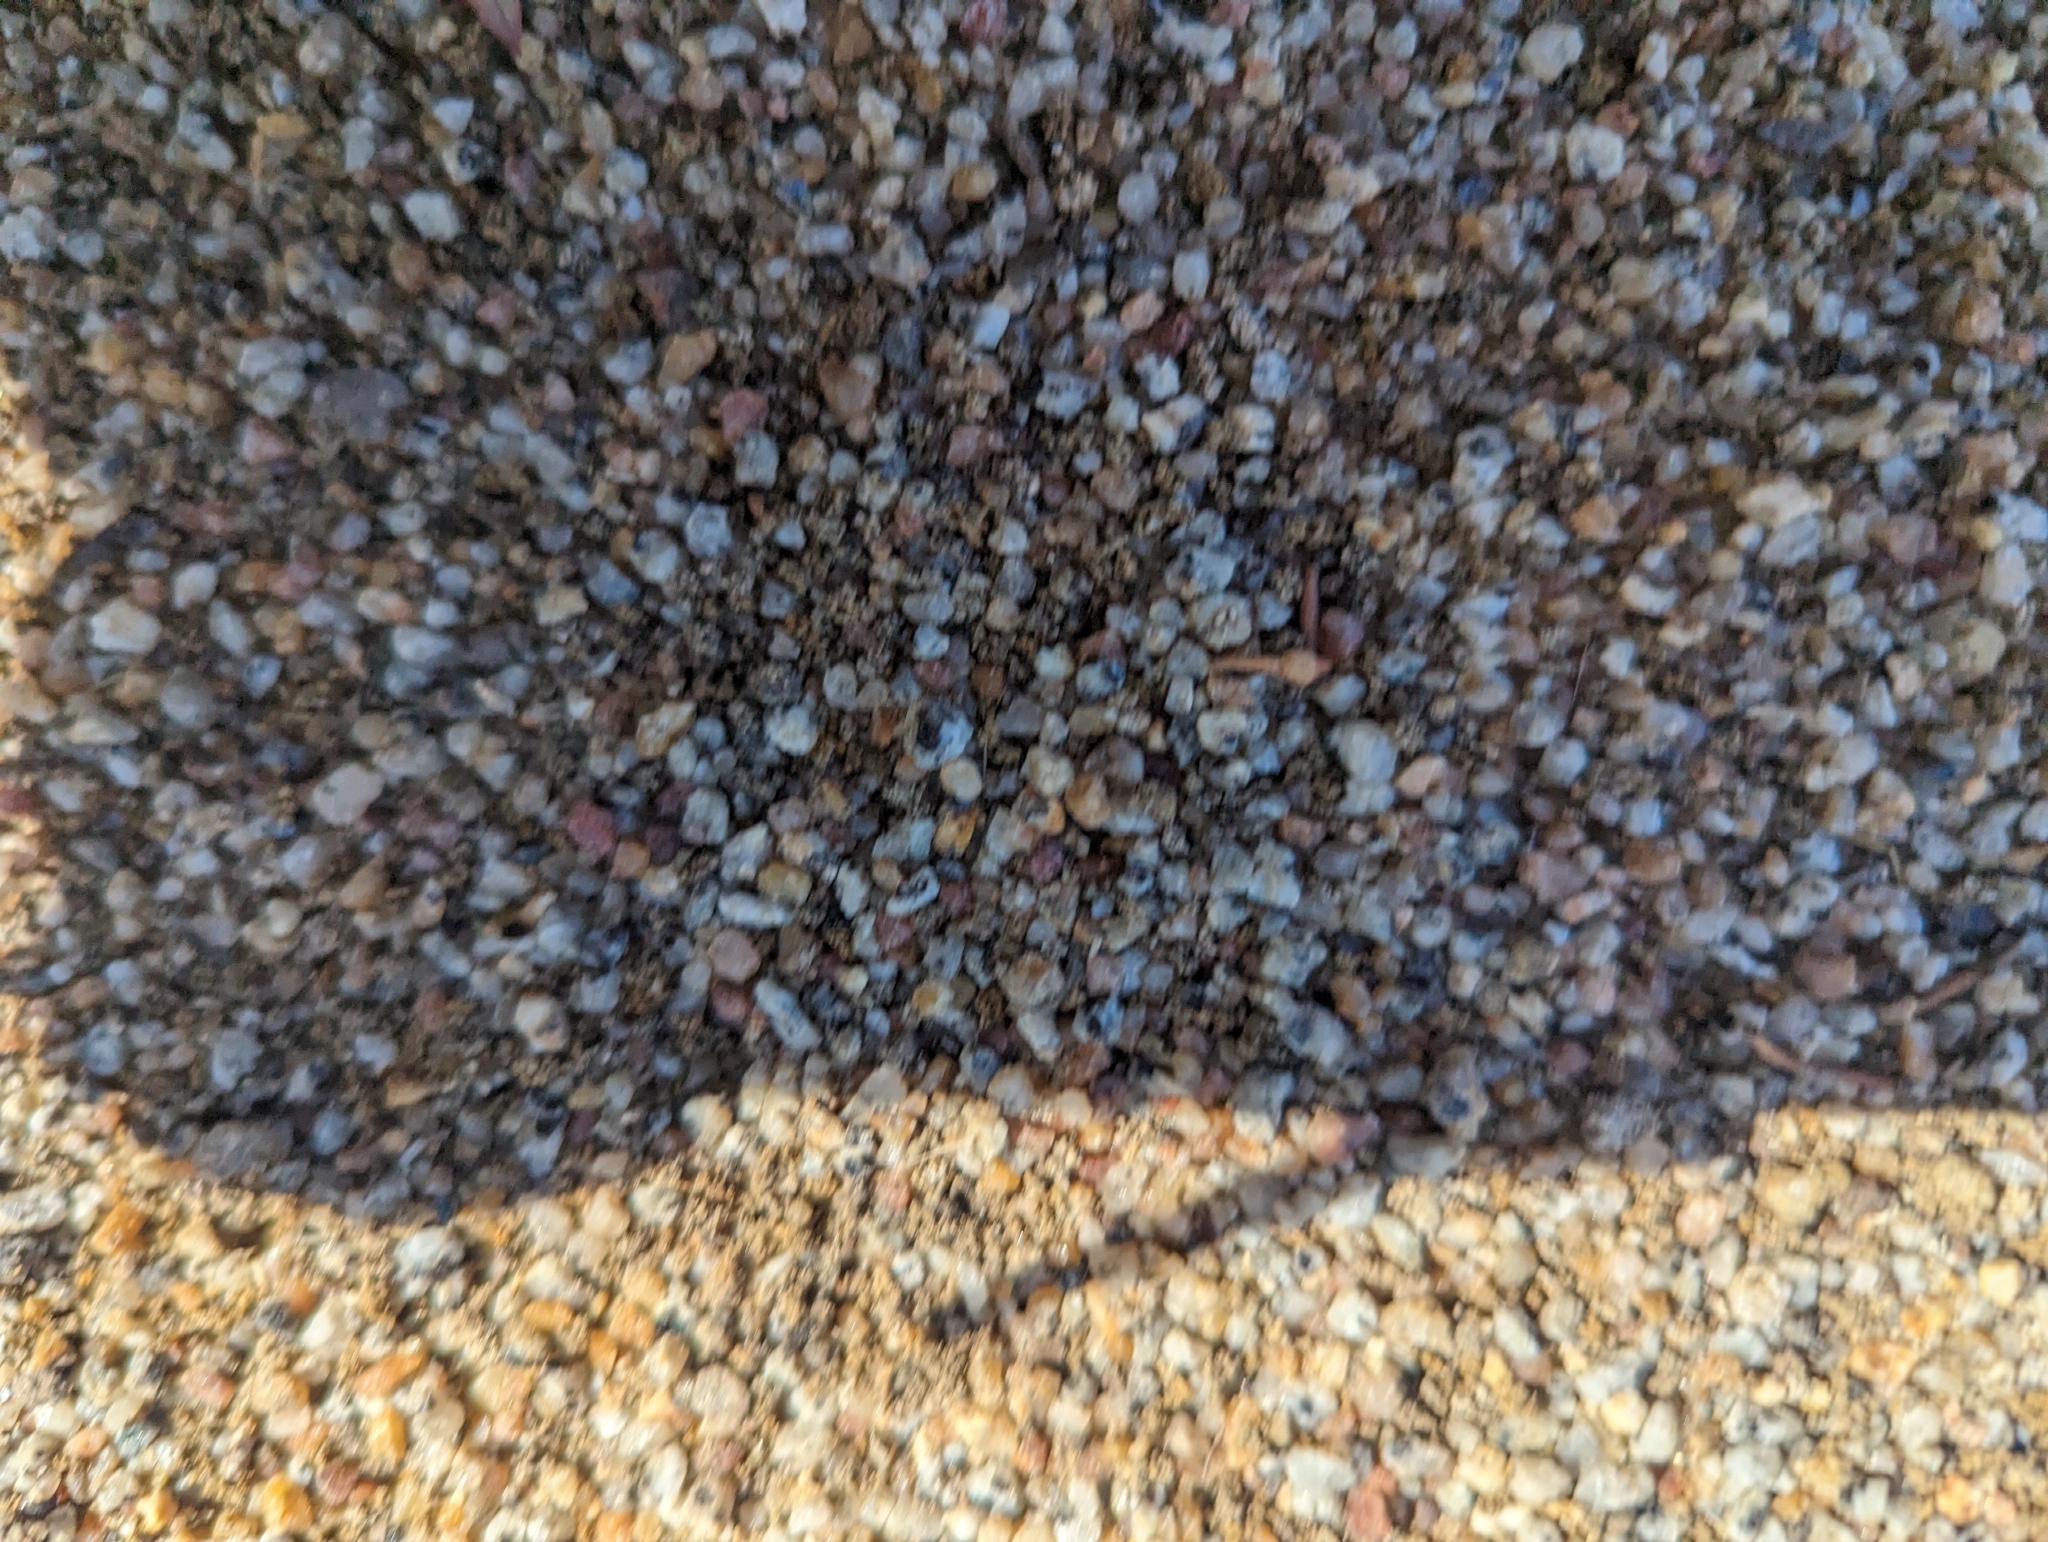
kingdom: Animalia
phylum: Arthropoda
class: Insecta
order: Hymenoptera
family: Formicidae
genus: Iridomyrmex
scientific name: Iridomyrmex purpureus
